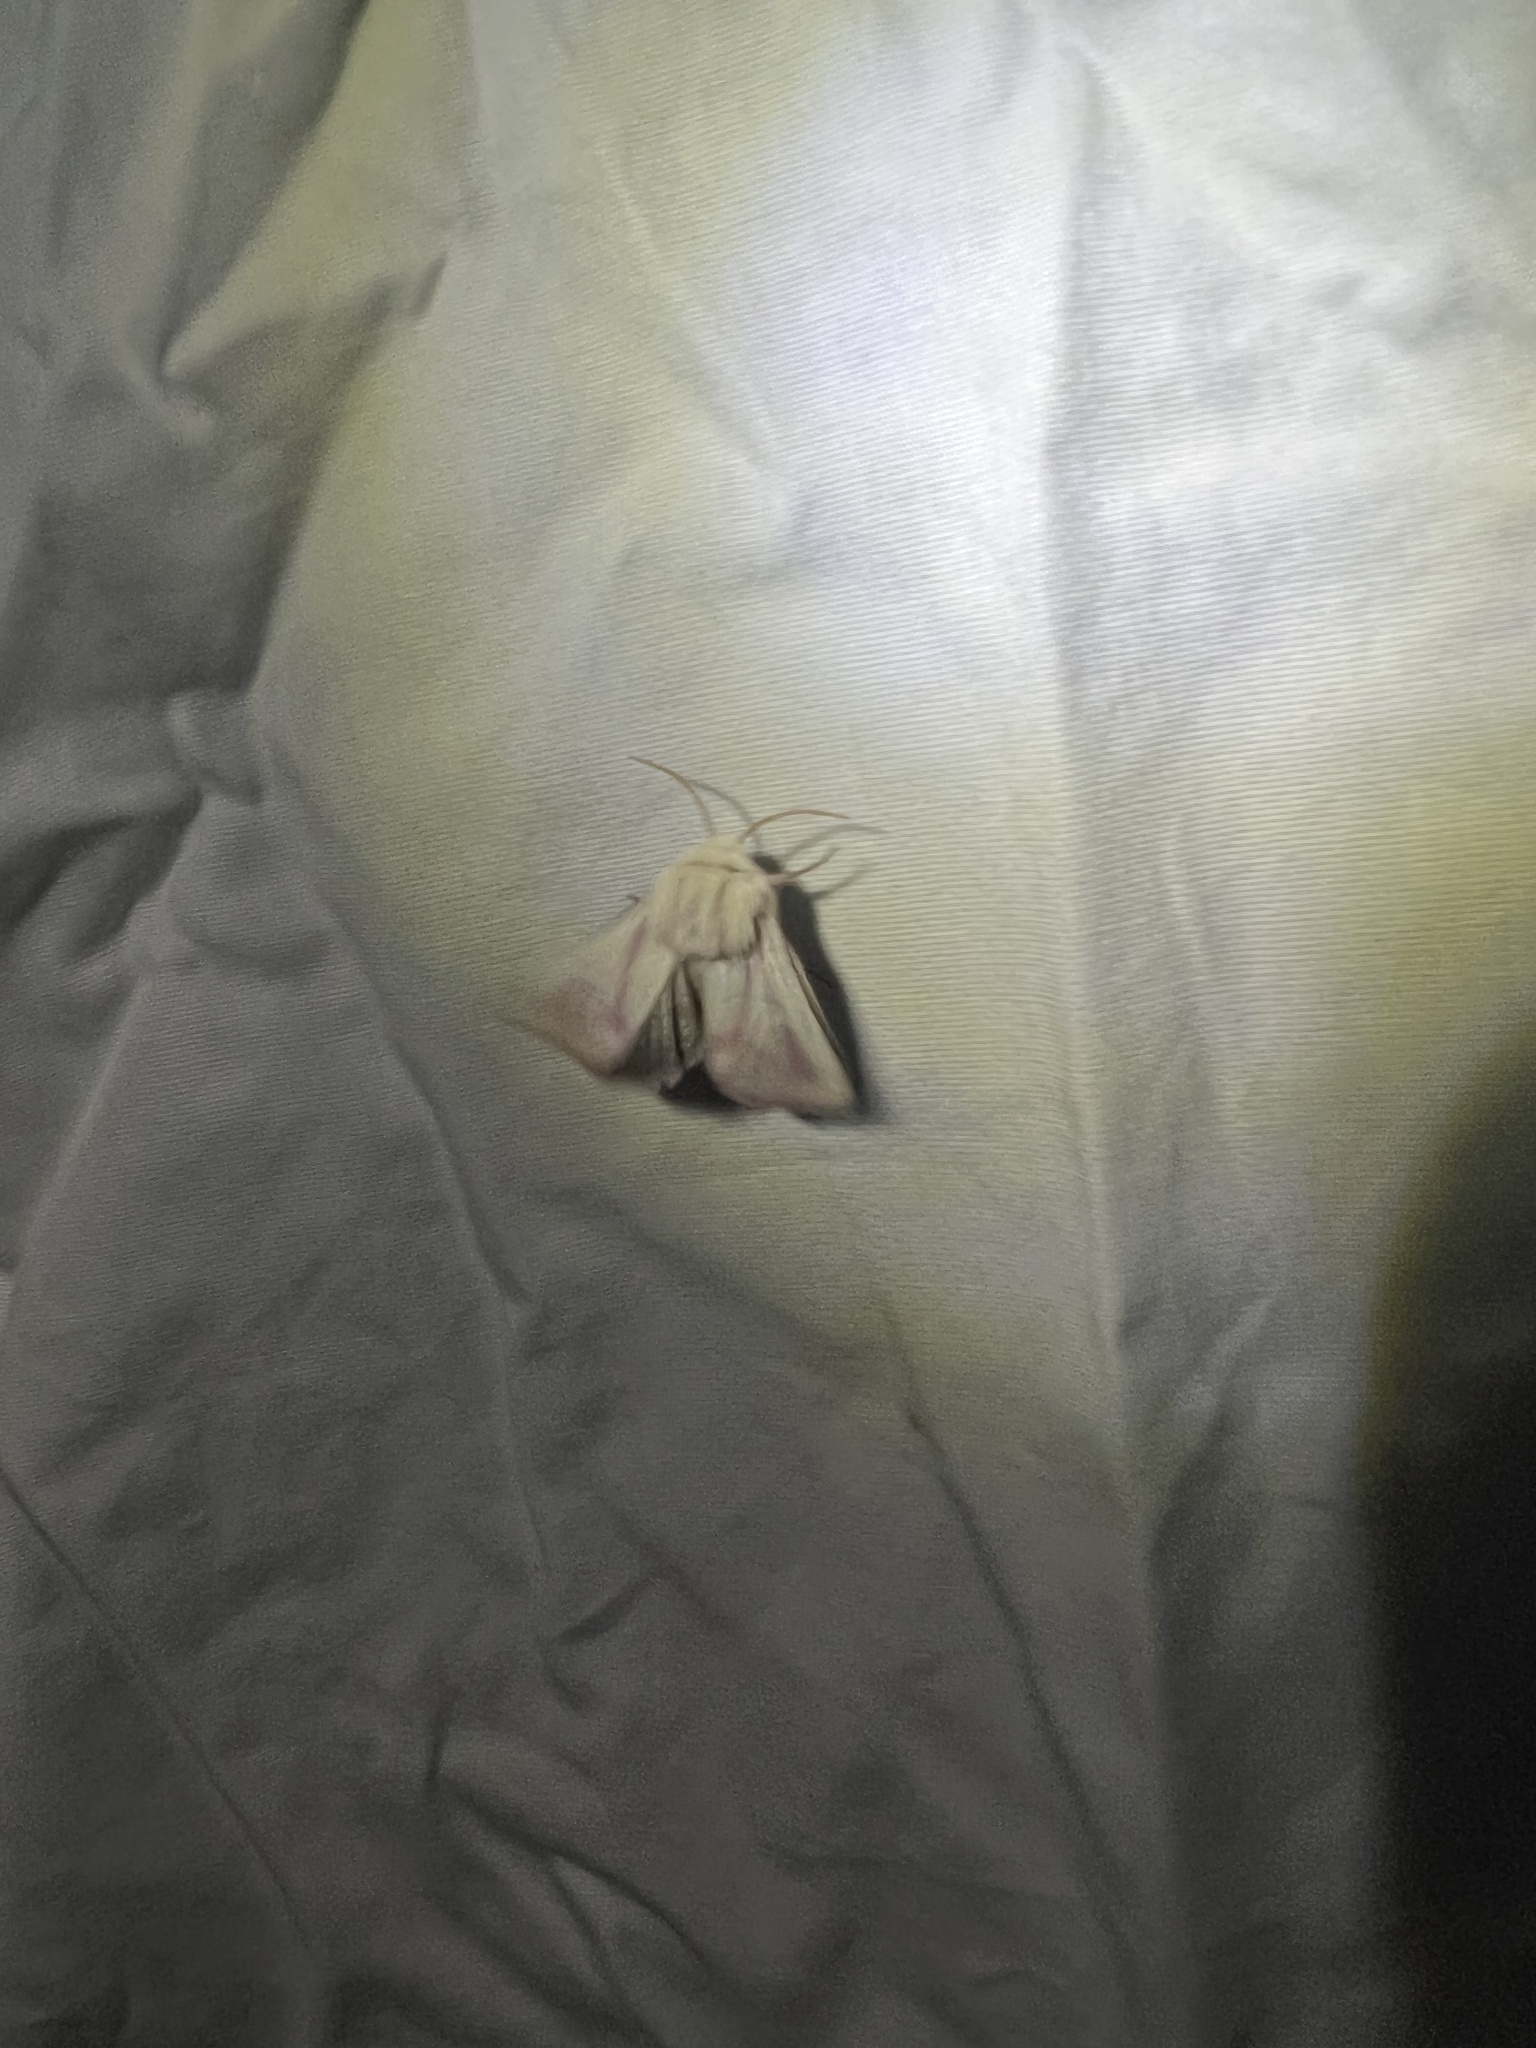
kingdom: Animalia
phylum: Arthropoda
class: Insecta
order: Lepidoptera
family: Noctuidae
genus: Schinia
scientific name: Schinia snowi
